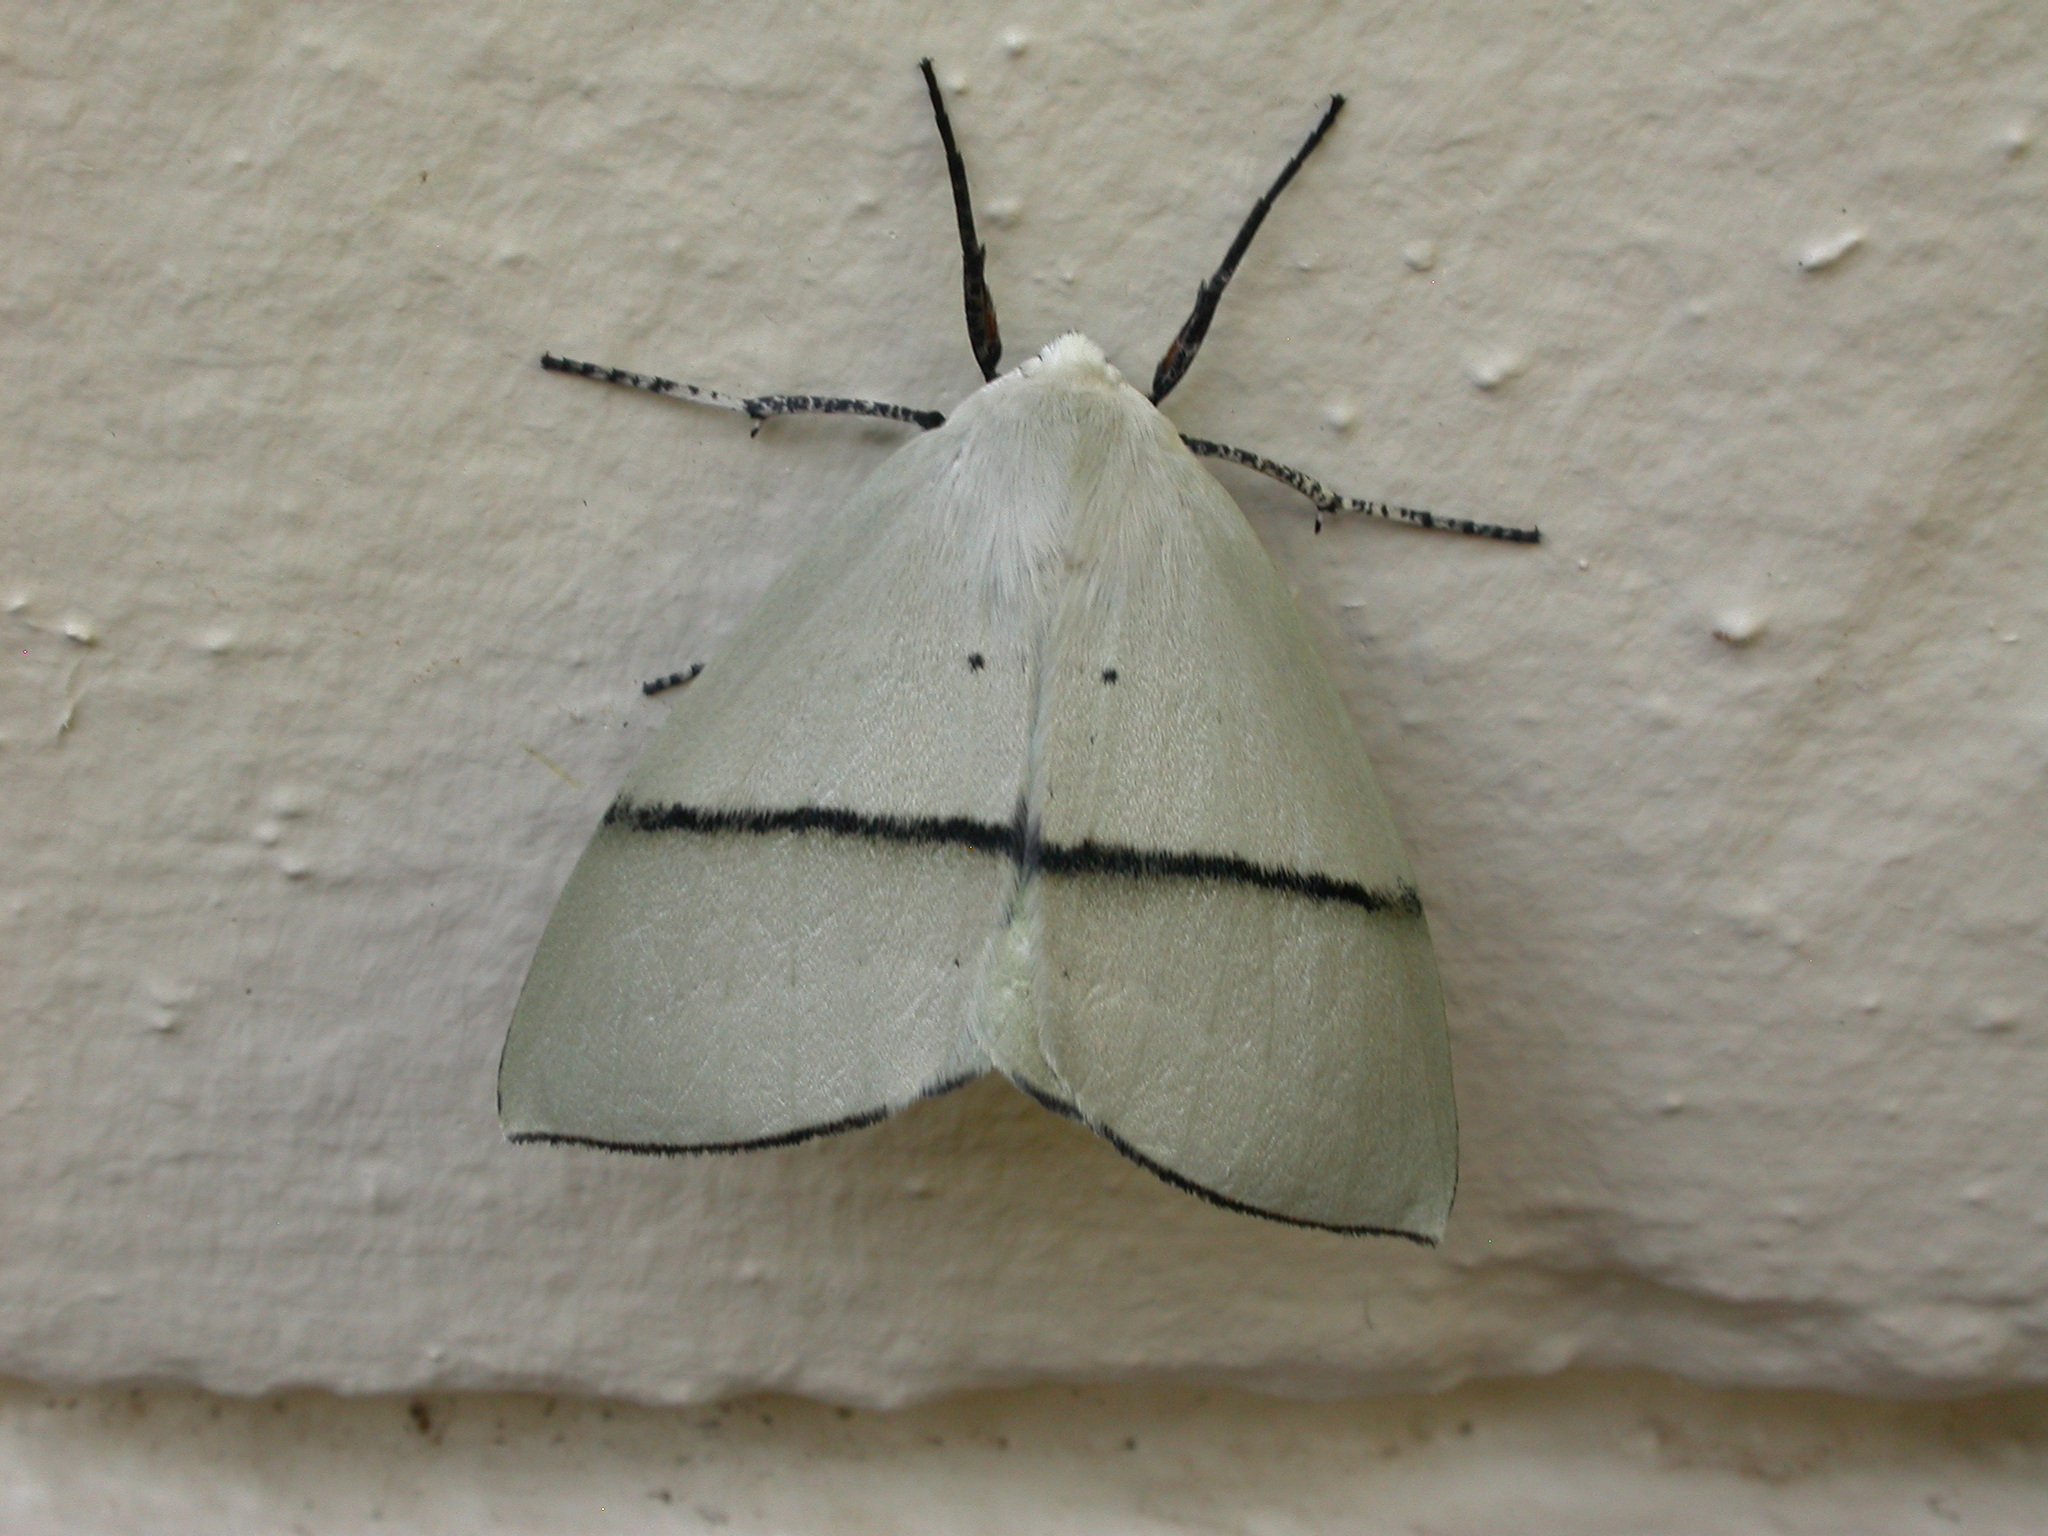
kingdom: Animalia
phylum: Arthropoda
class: Insecta
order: Lepidoptera
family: Geometridae
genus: Gastrophora
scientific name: Gastrophora henricaria
